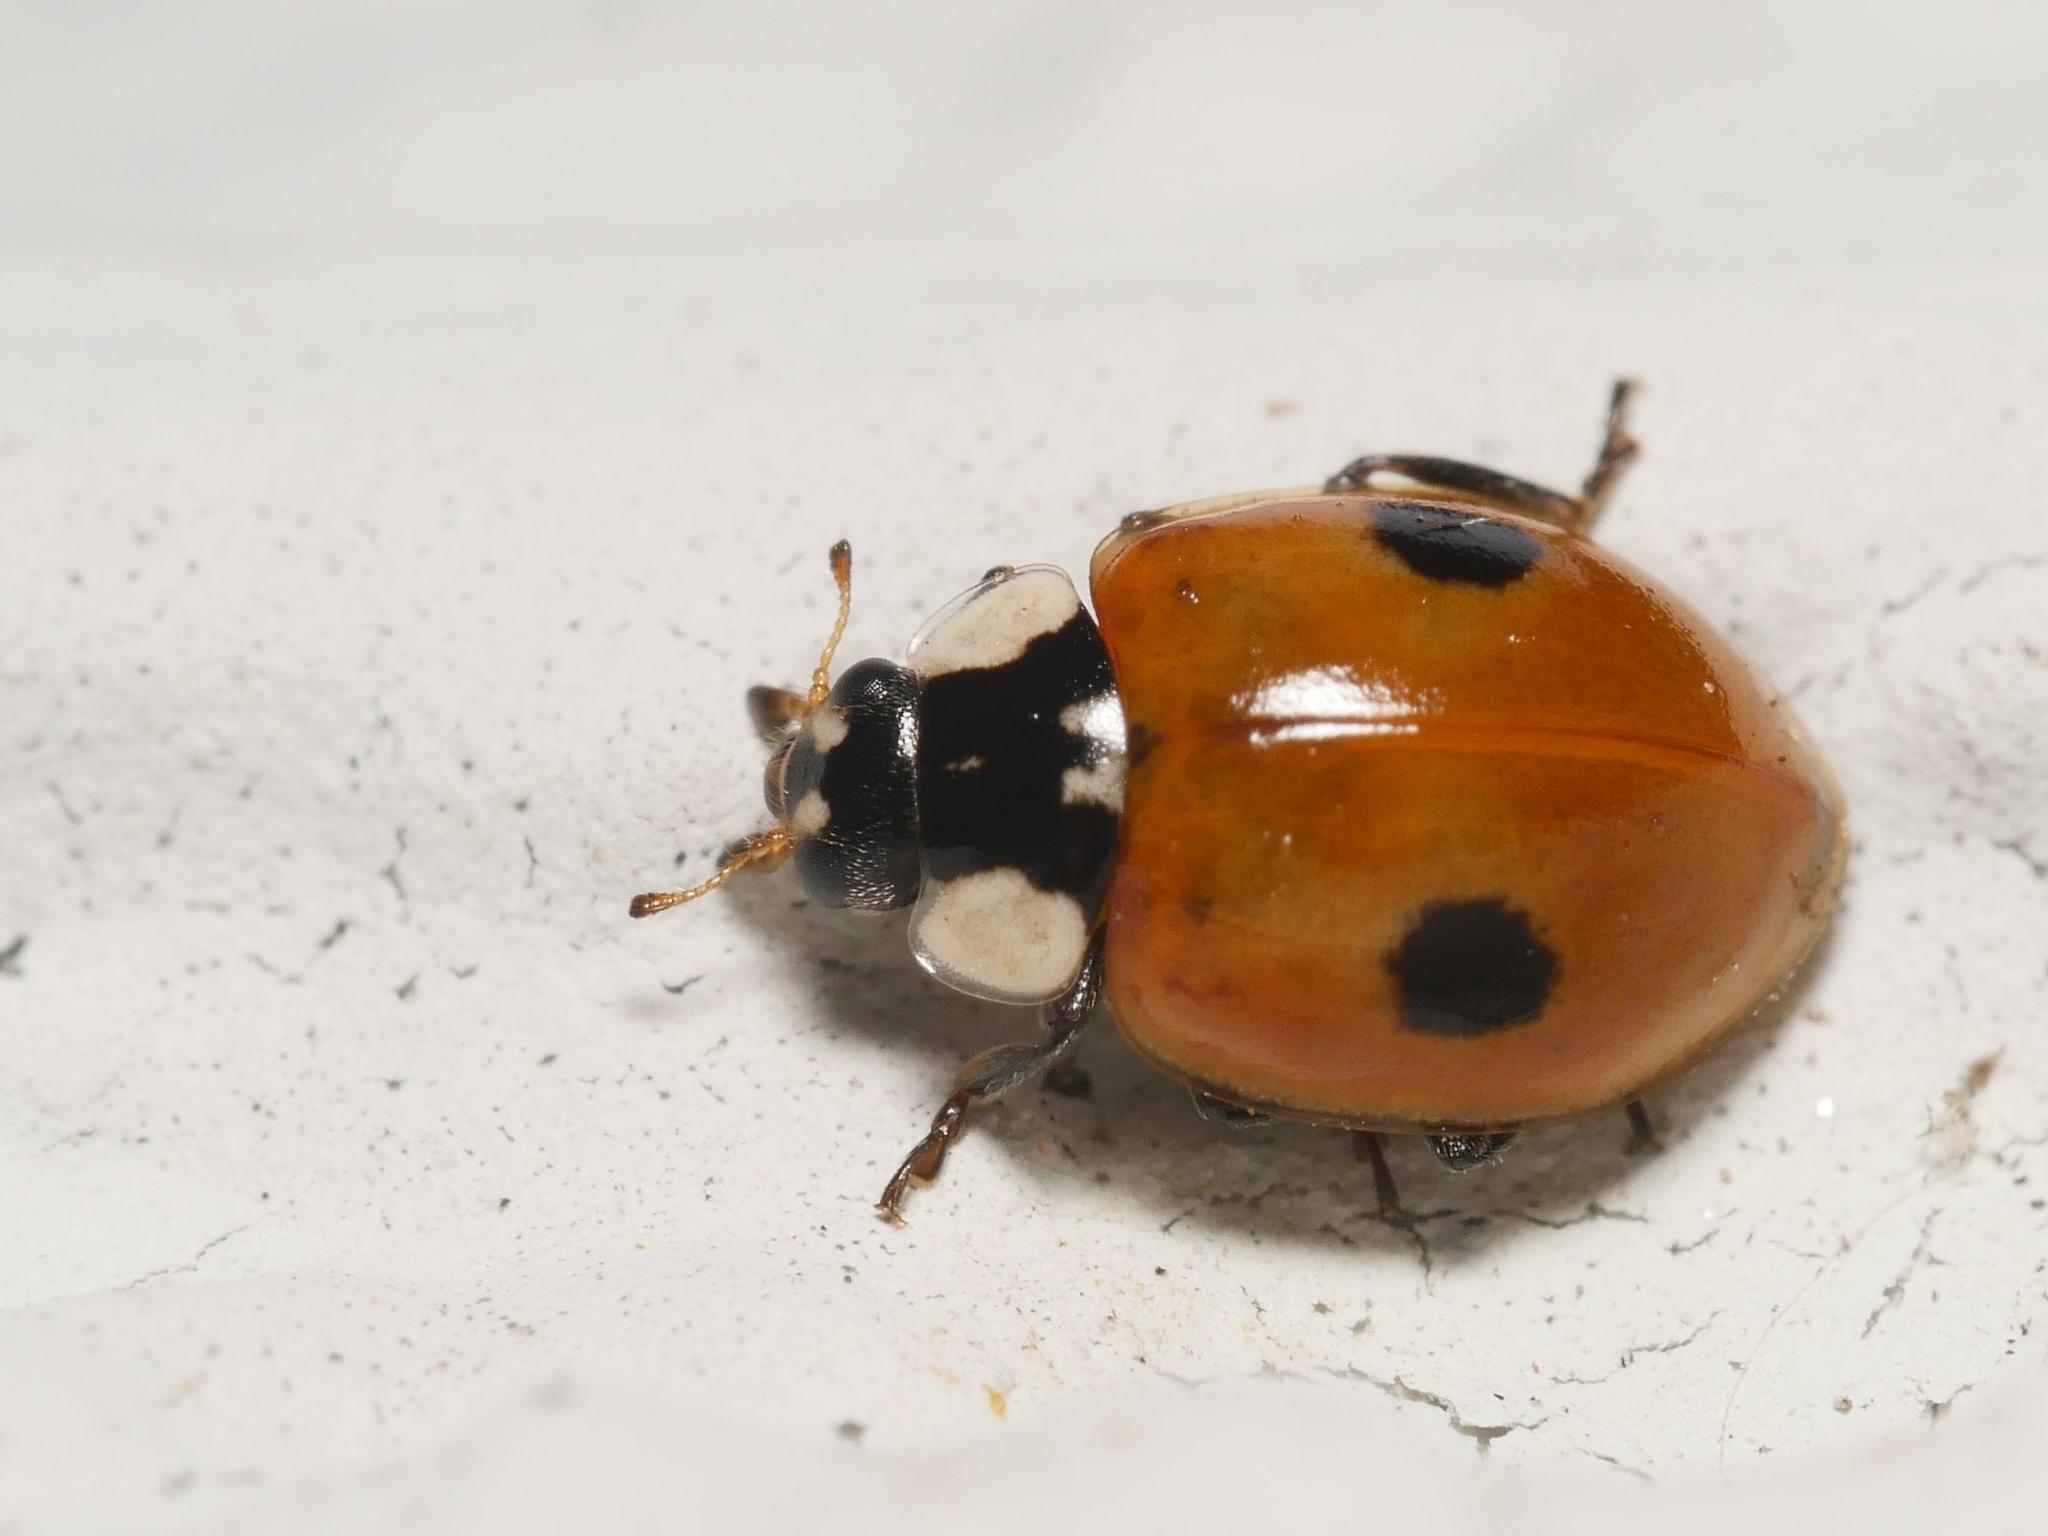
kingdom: Animalia
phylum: Arthropoda
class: Insecta
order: Coleoptera
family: Coccinellidae
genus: Adalia
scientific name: Adalia bipunctata
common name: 2-spot ladybird
